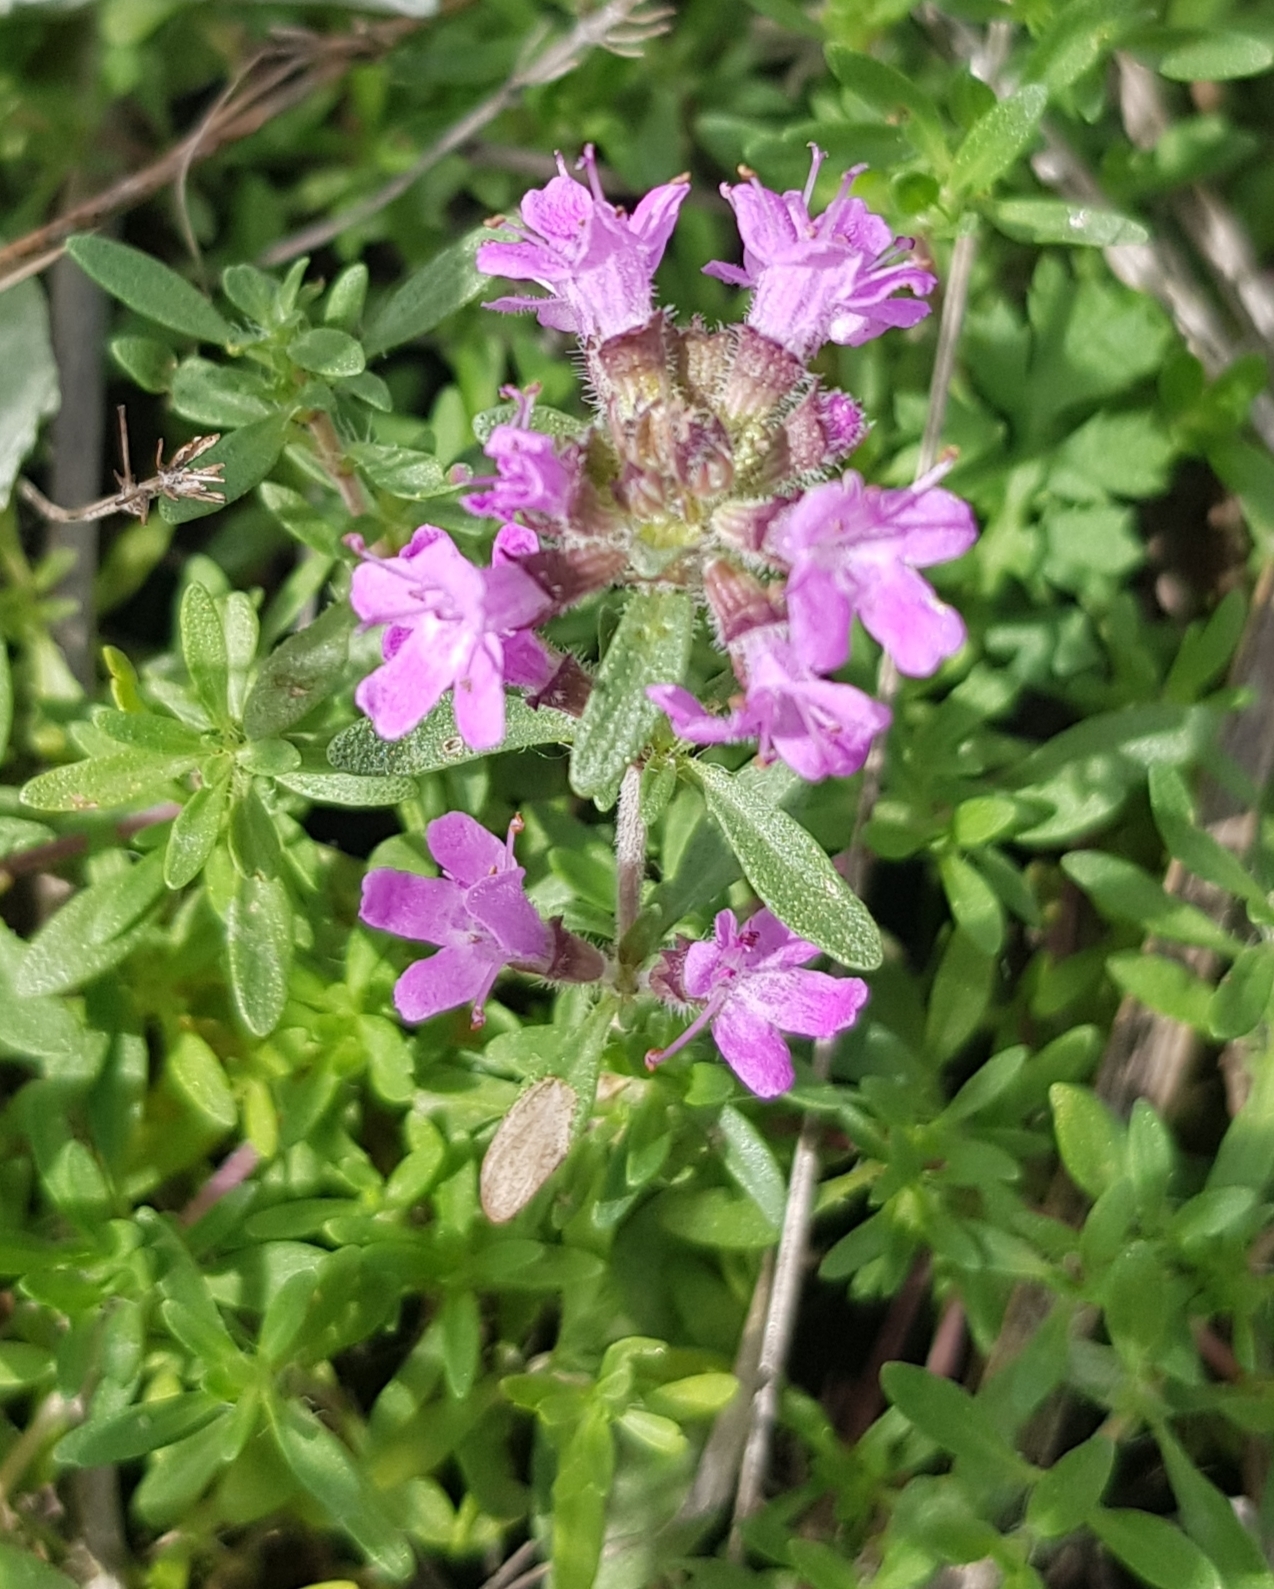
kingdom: Plantae
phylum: Tracheophyta
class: Magnoliopsida
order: Lamiales
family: Lamiaceae
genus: Thymus
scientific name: Thymus baicalensis
